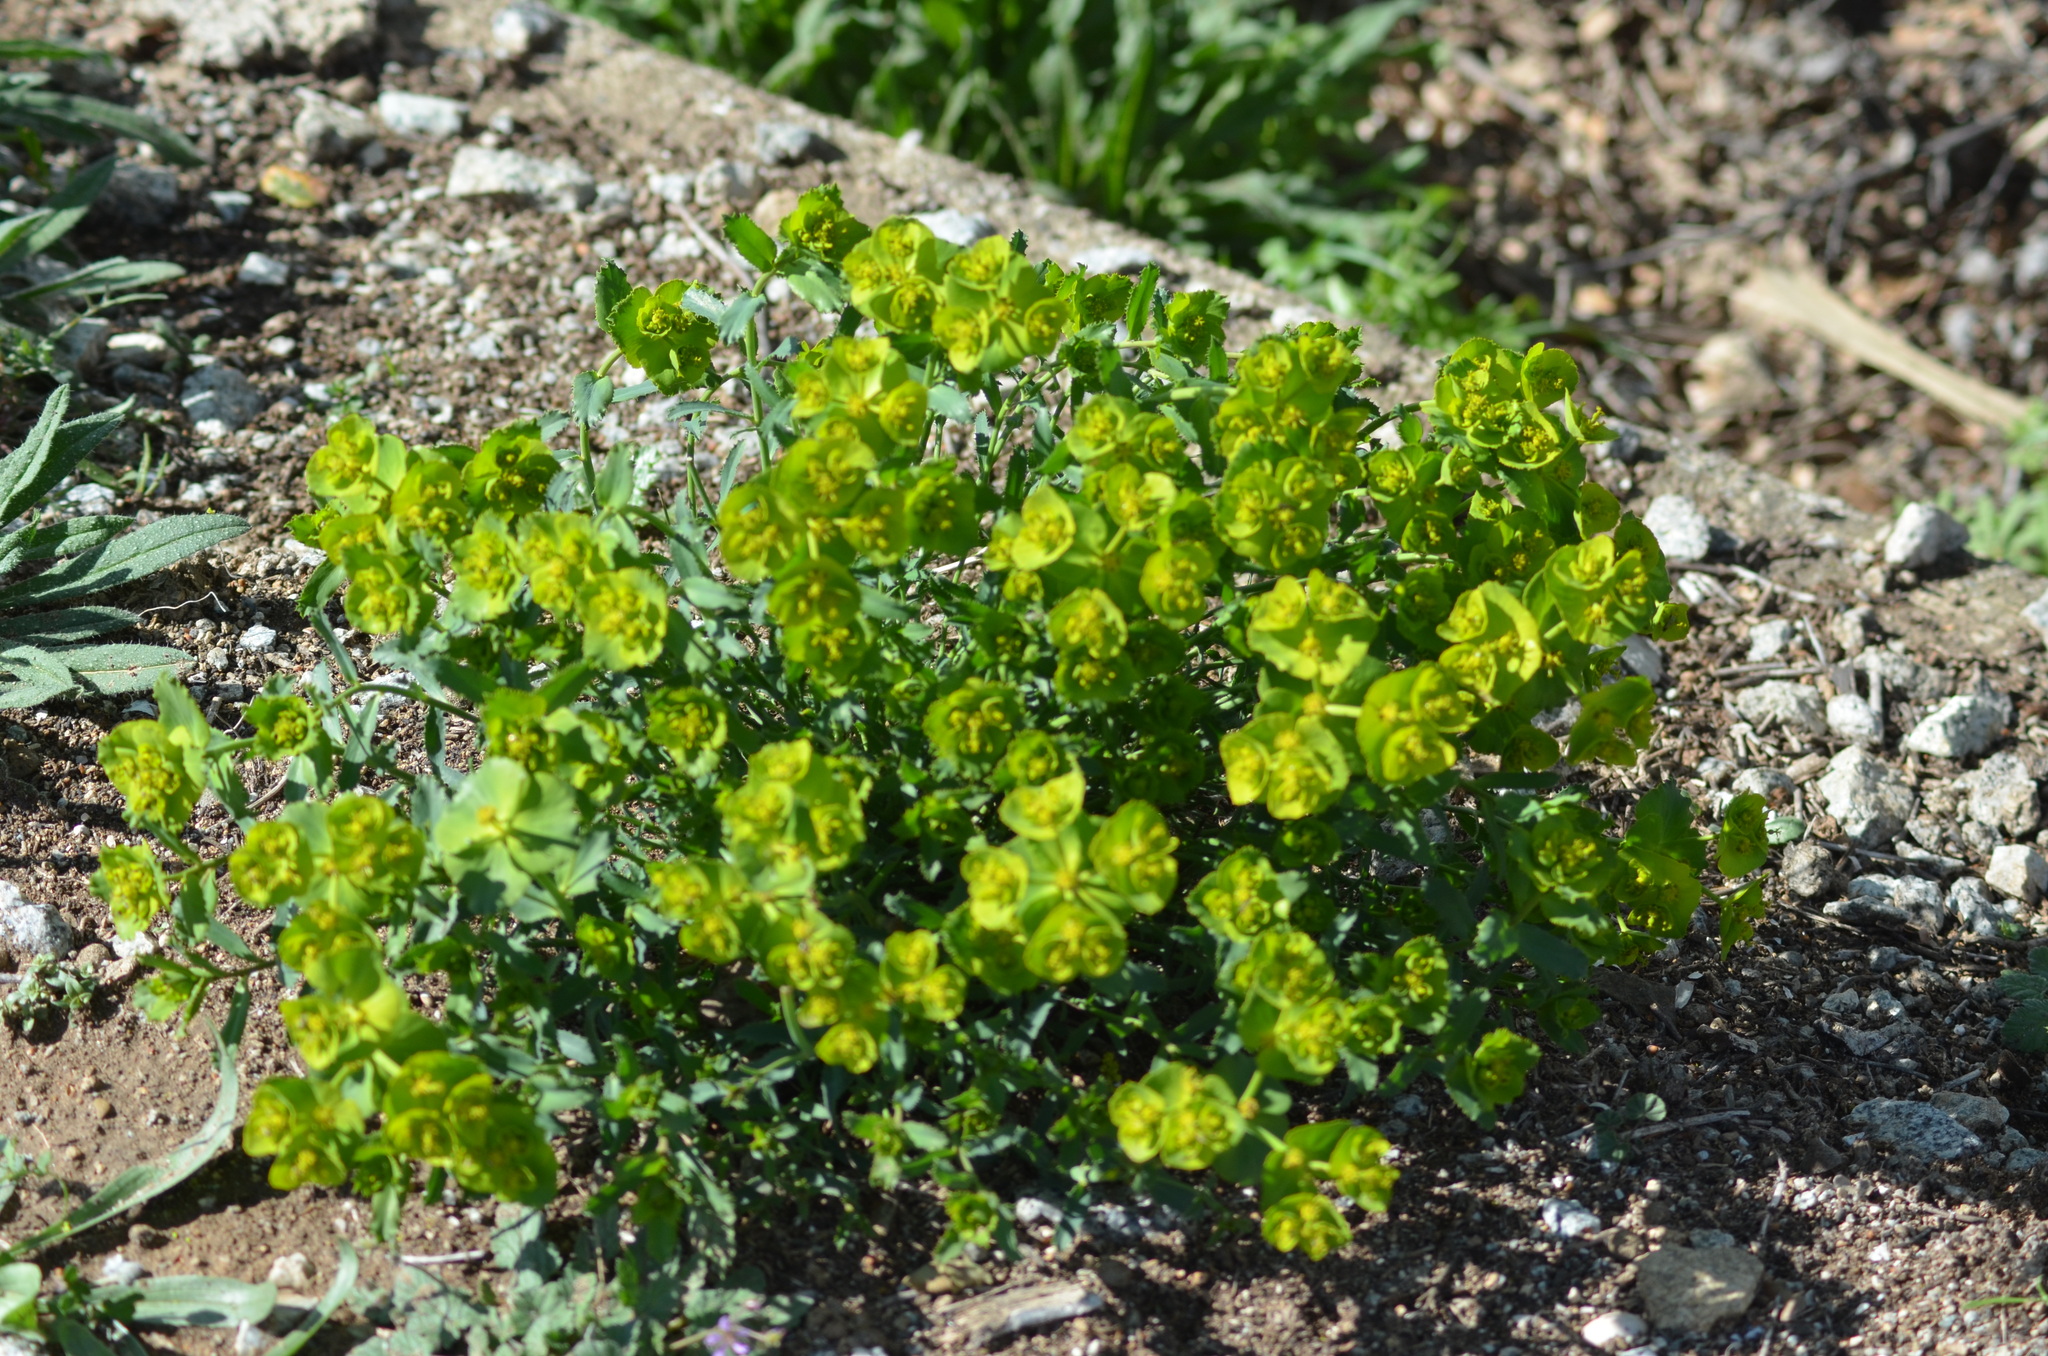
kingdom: Plantae
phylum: Tracheophyta
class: Magnoliopsida
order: Malpighiales
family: Euphorbiaceae
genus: Euphorbia
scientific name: Euphorbia serrata
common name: Serrate spurge
